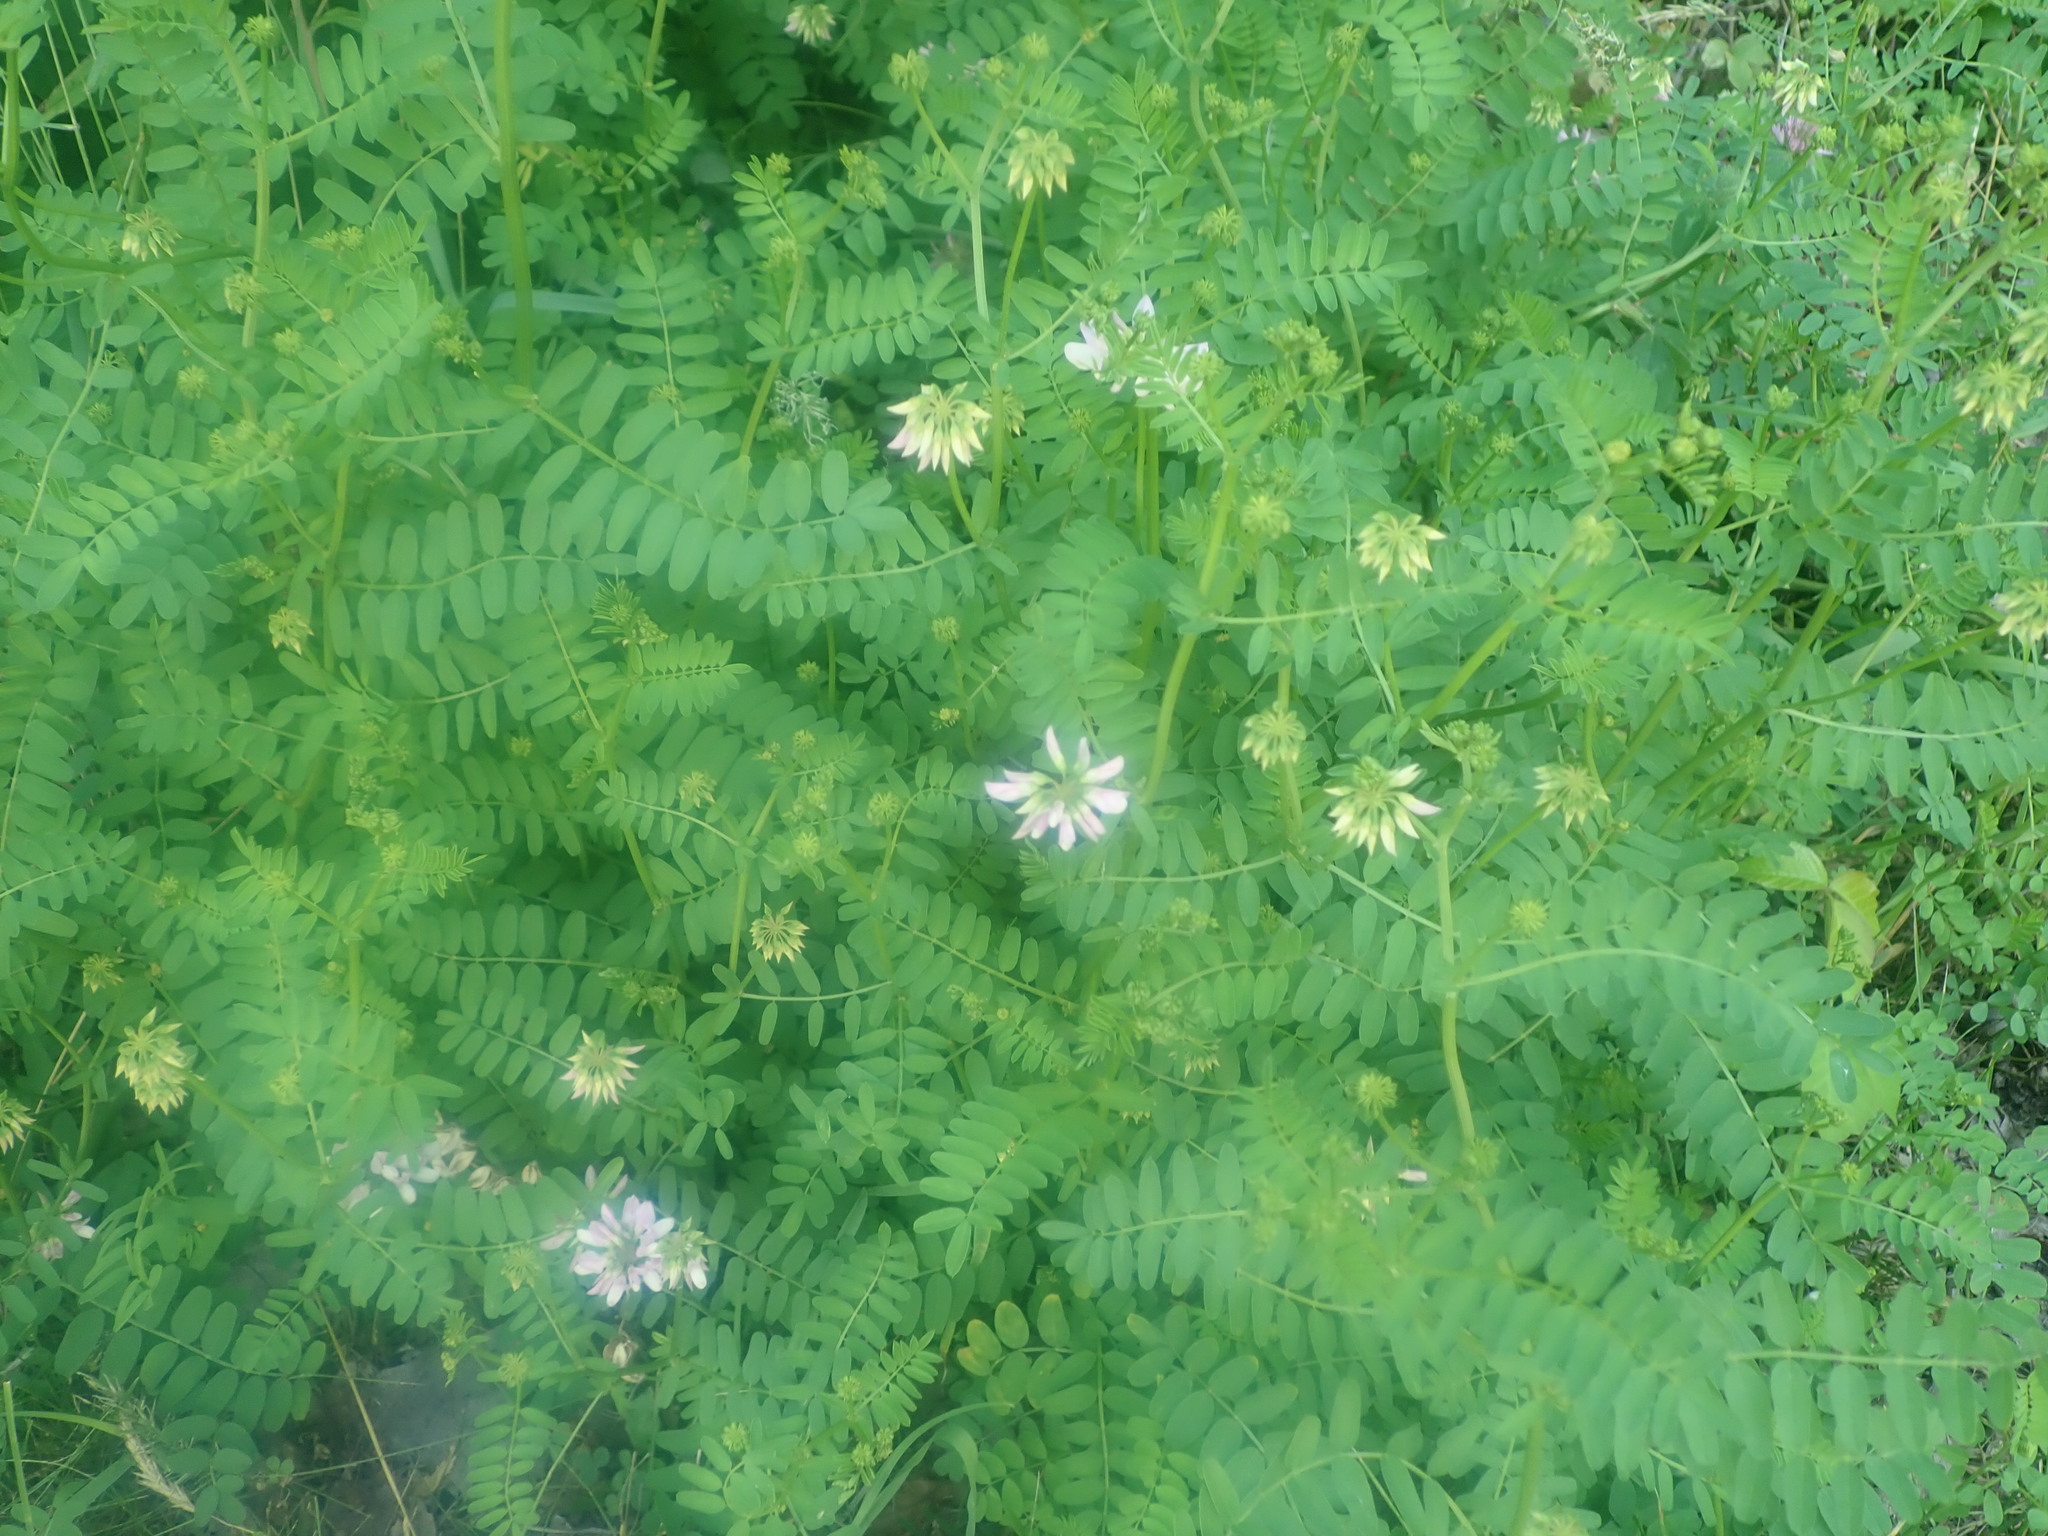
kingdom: Plantae
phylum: Tracheophyta
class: Magnoliopsida
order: Fabales
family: Fabaceae
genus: Coronilla
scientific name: Coronilla varia
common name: Crownvetch
